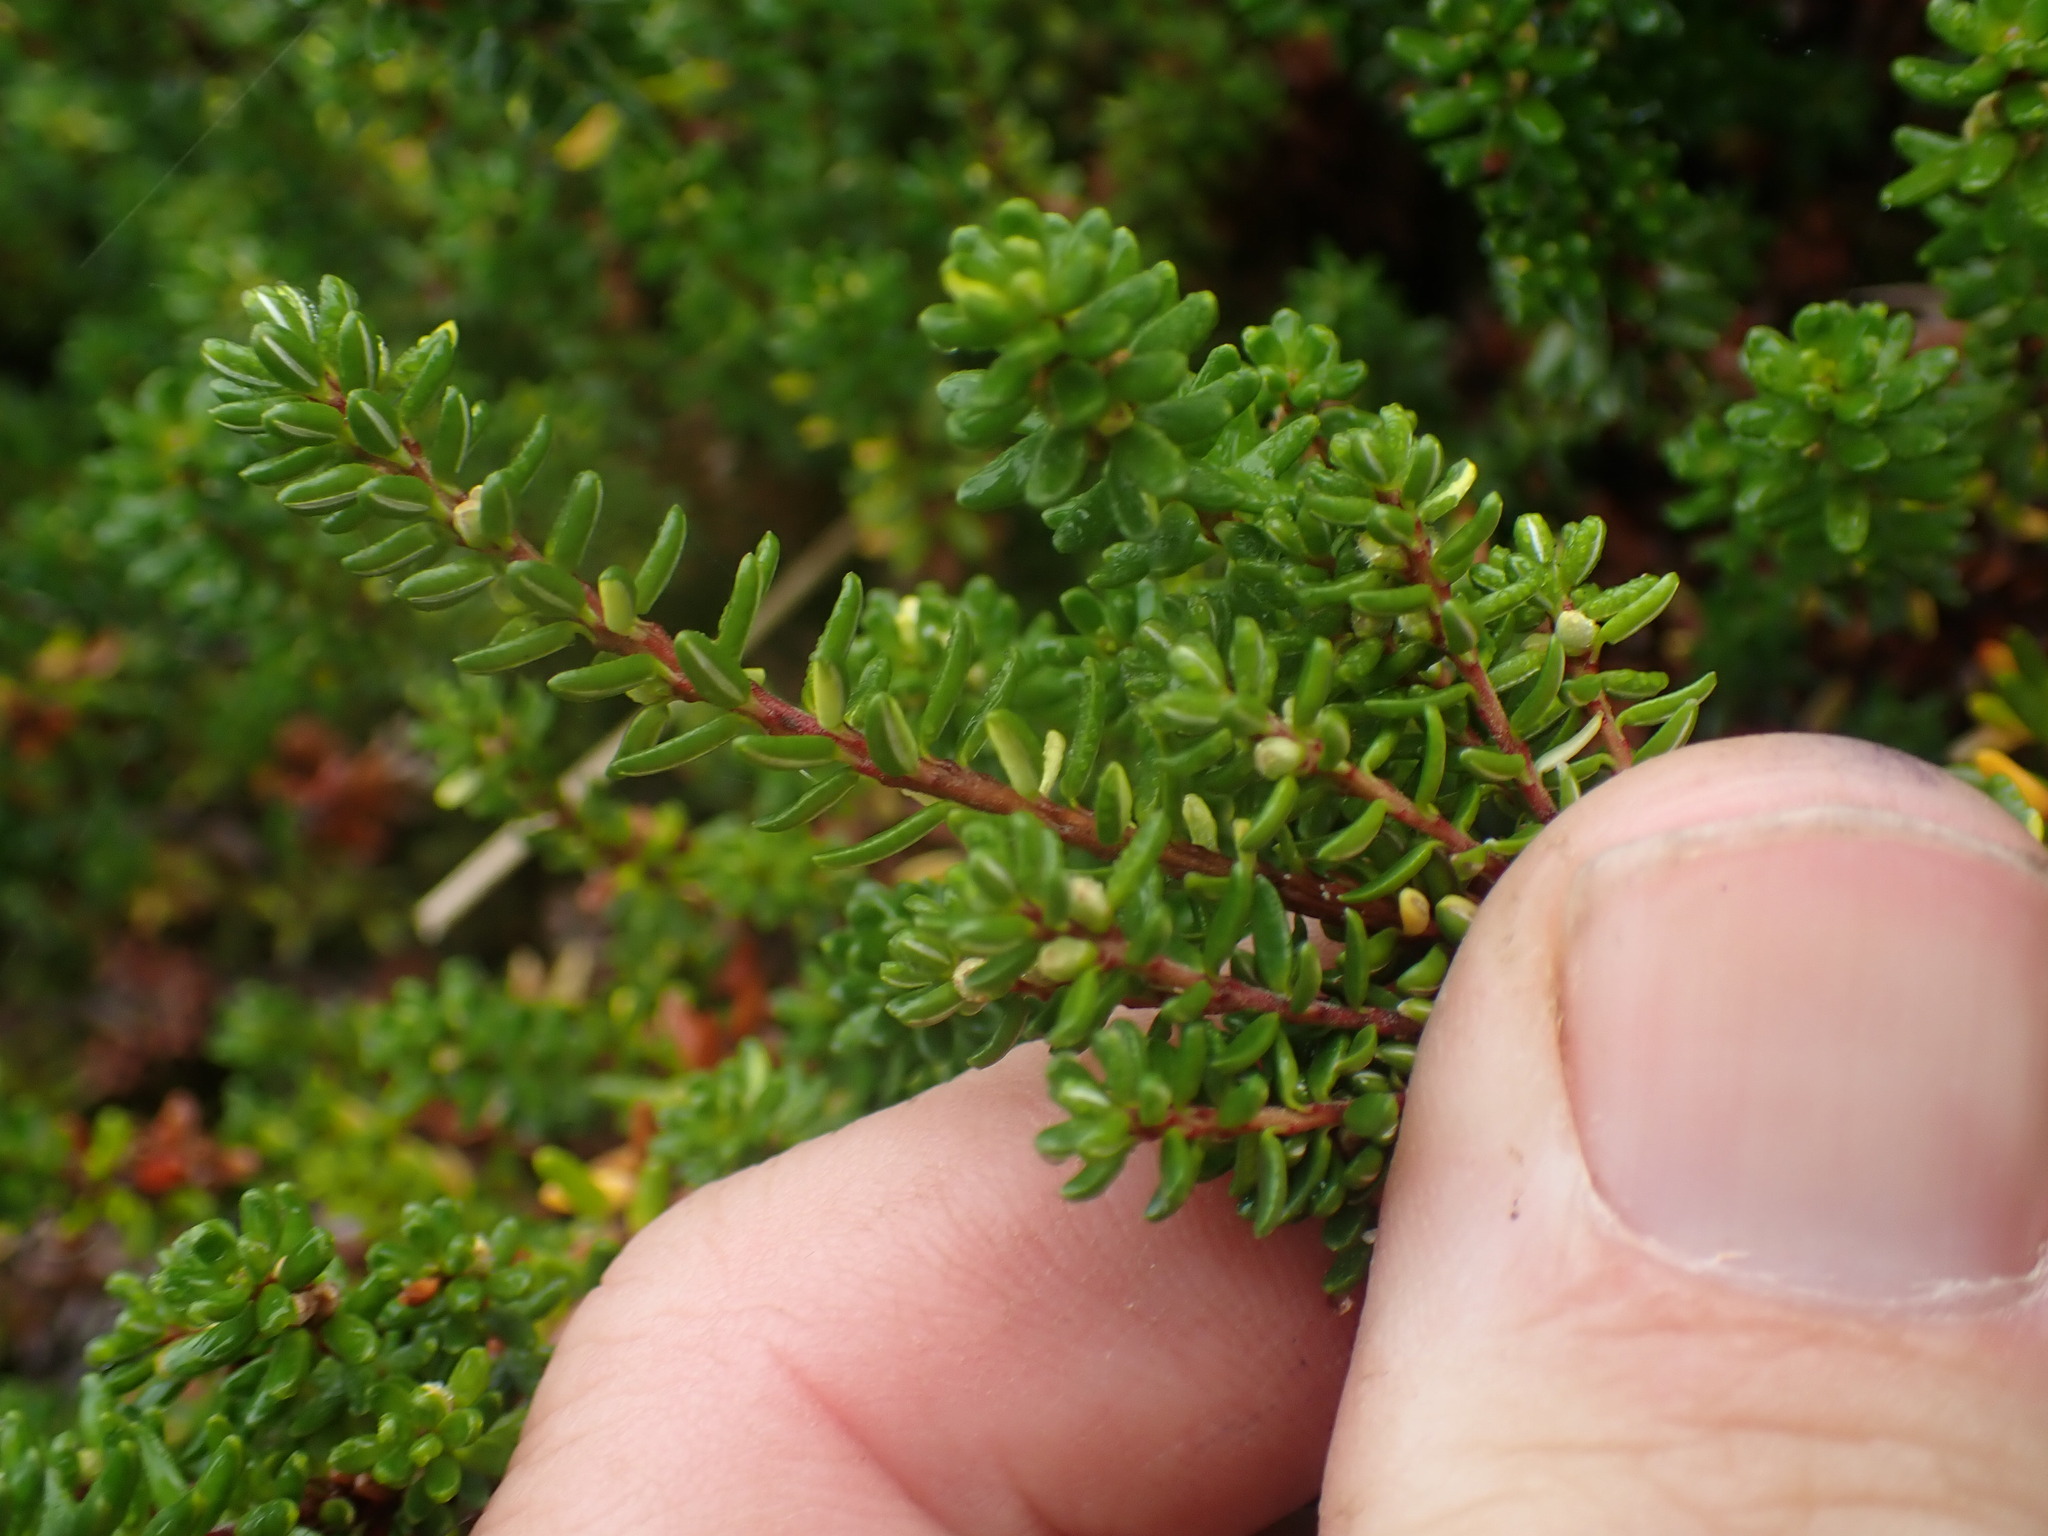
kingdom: Plantae
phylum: Tracheophyta
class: Magnoliopsida
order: Ericales
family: Ericaceae
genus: Empetrum
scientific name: Empetrum nigrum
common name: Black crowberry
